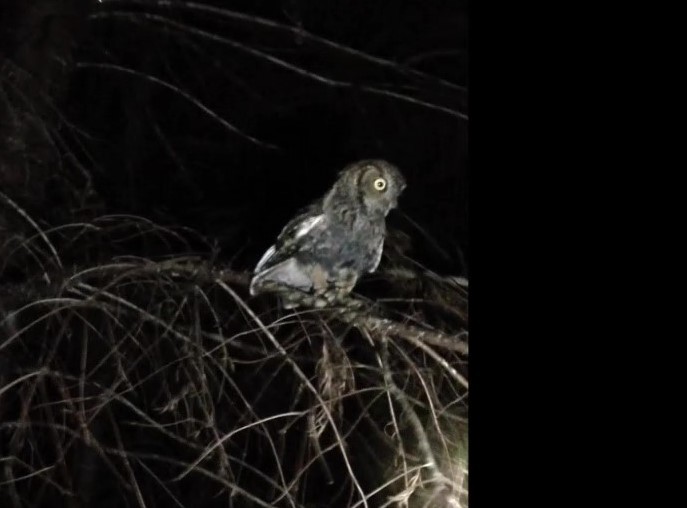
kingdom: Animalia
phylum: Chordata
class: Aves
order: Strigiformes
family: Strigidae
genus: Megascops
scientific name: Megascops kennicottii
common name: Western screech-owl
